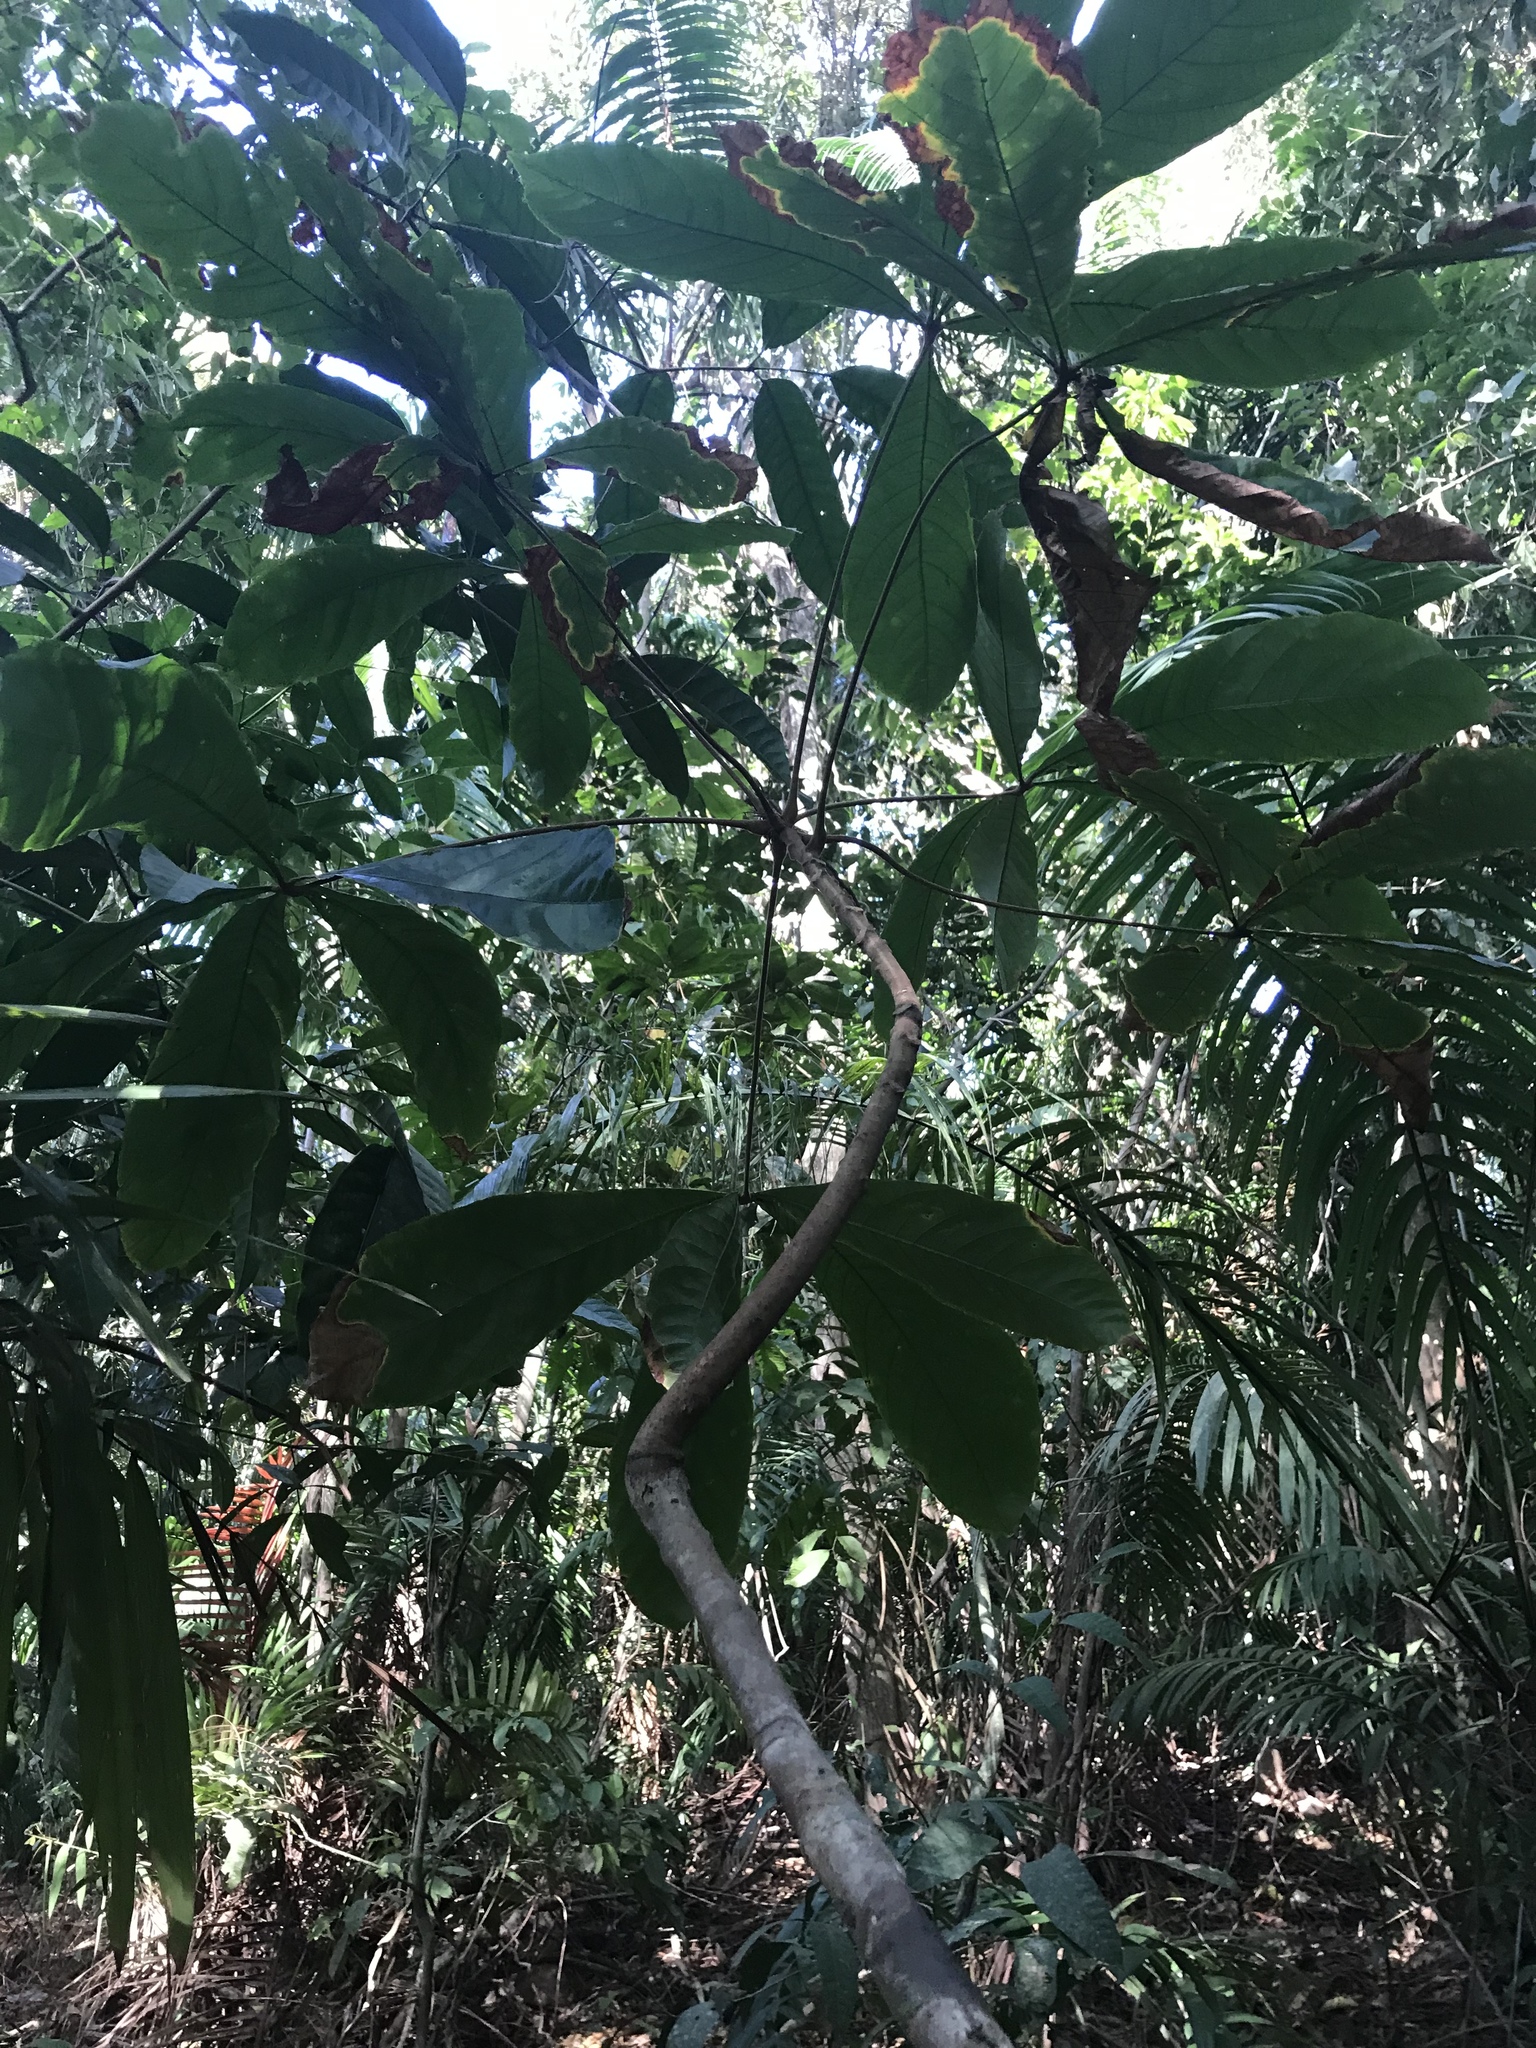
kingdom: Plantae
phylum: Tracheophyta
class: Magnoliopsida
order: Malvales
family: Malvaceae
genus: Herrania
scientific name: Herrania purpurea
